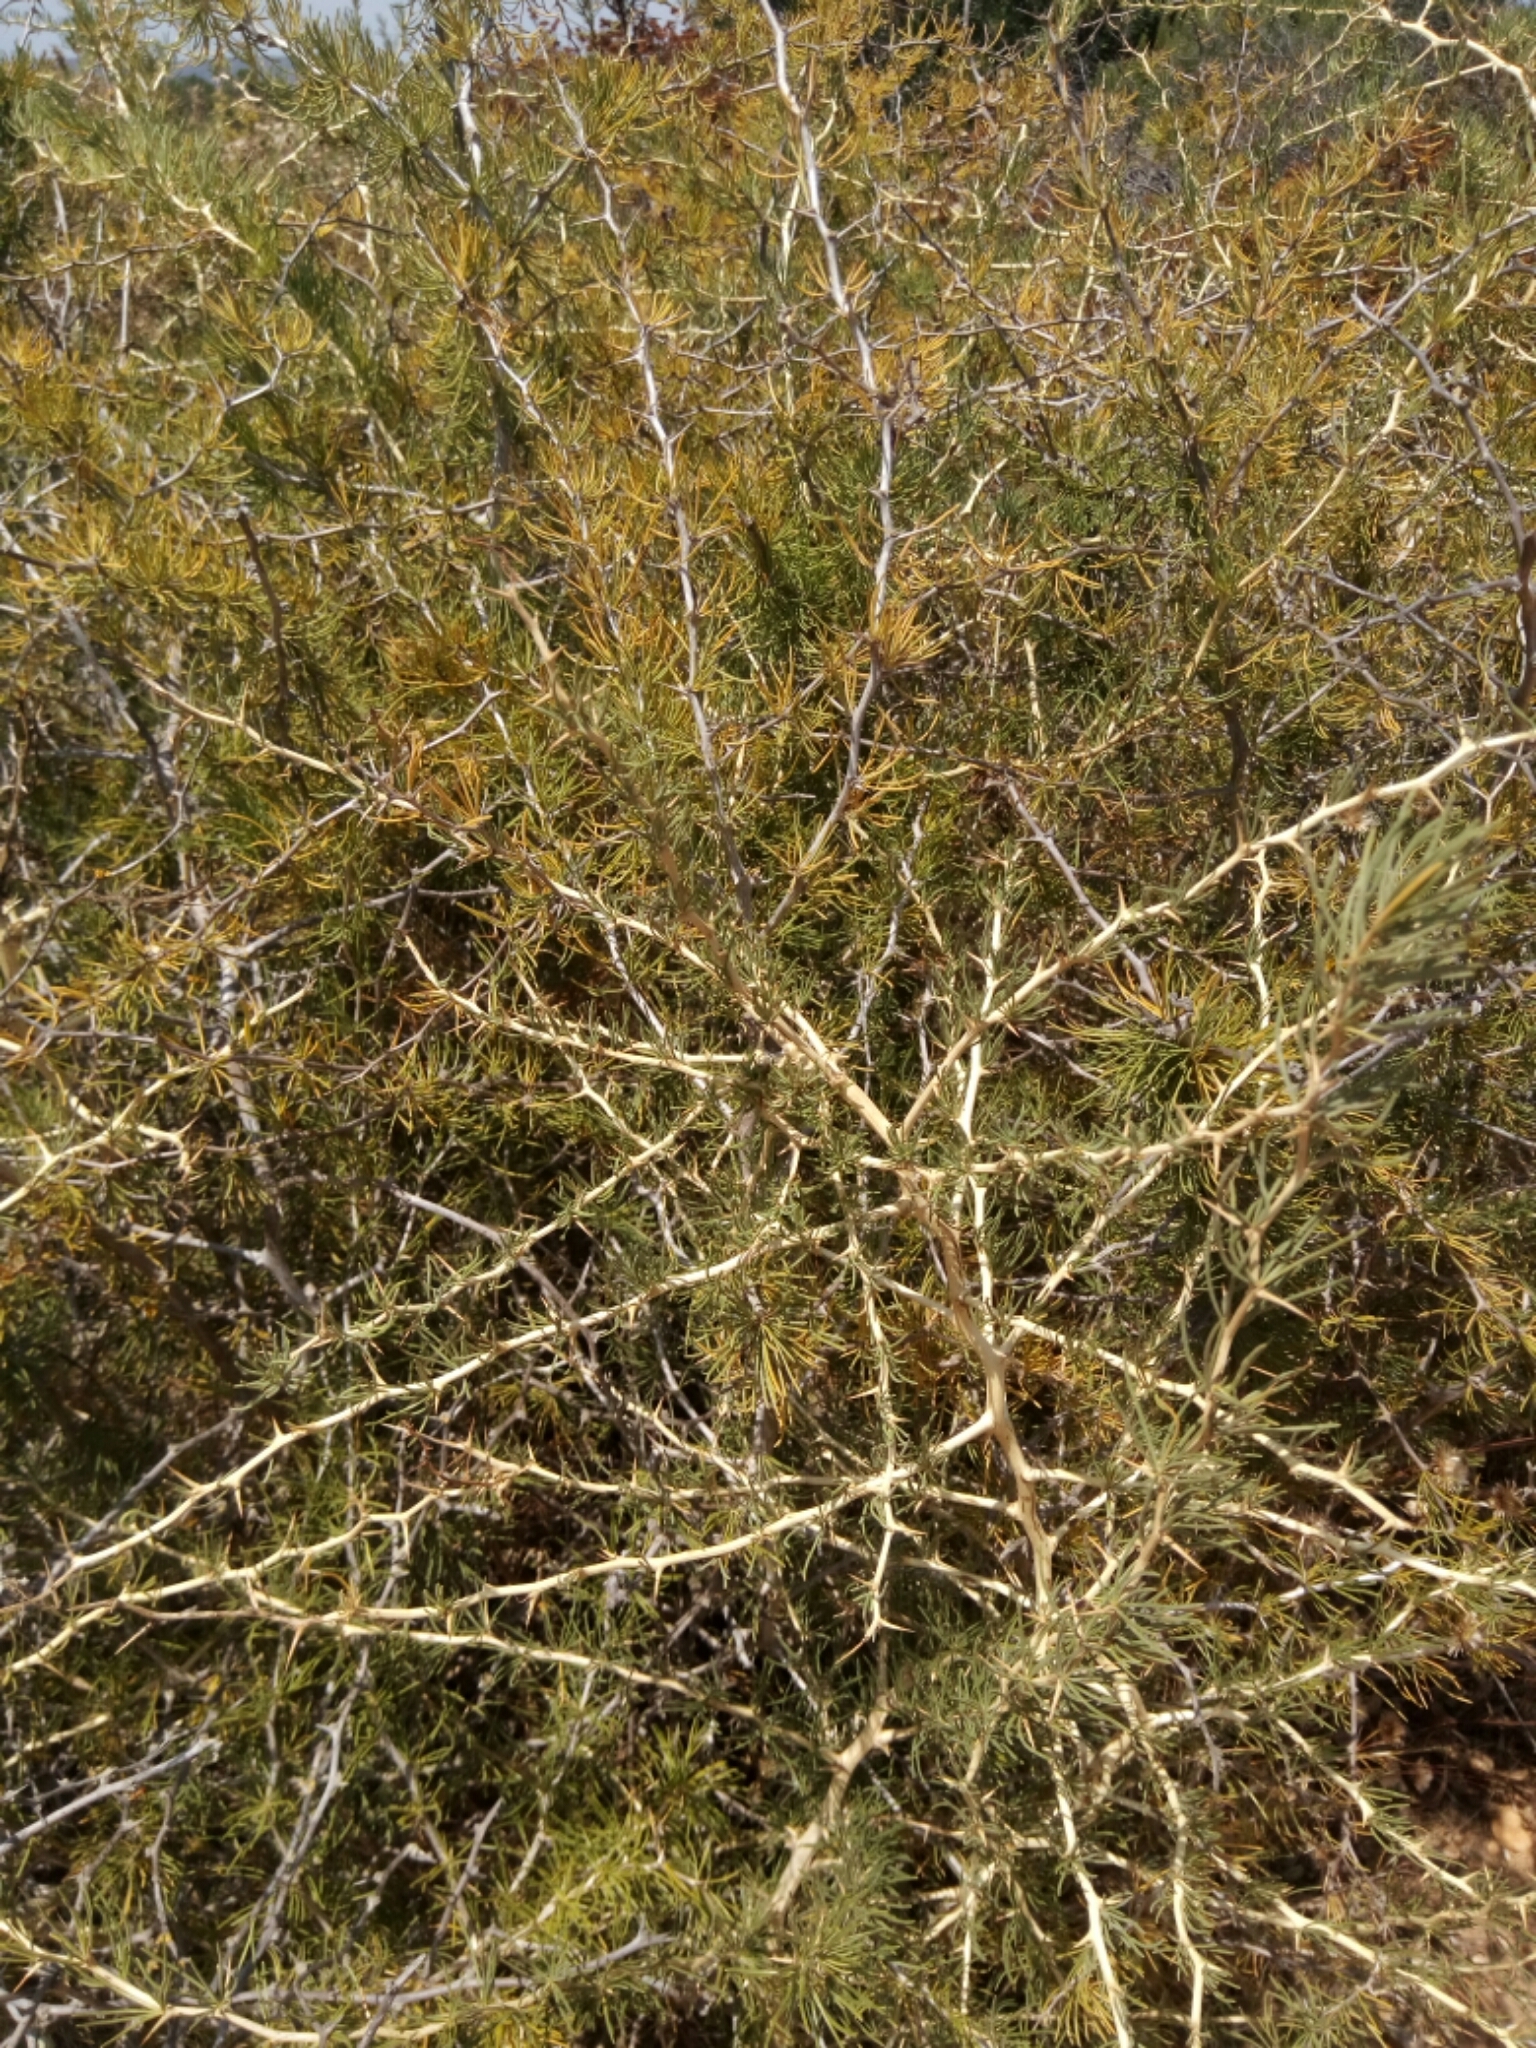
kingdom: Plantae
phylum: Tracheophyta
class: Liliopsida
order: Asparagales
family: Asparagaceae
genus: Asparagus
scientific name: Asparagus albus
